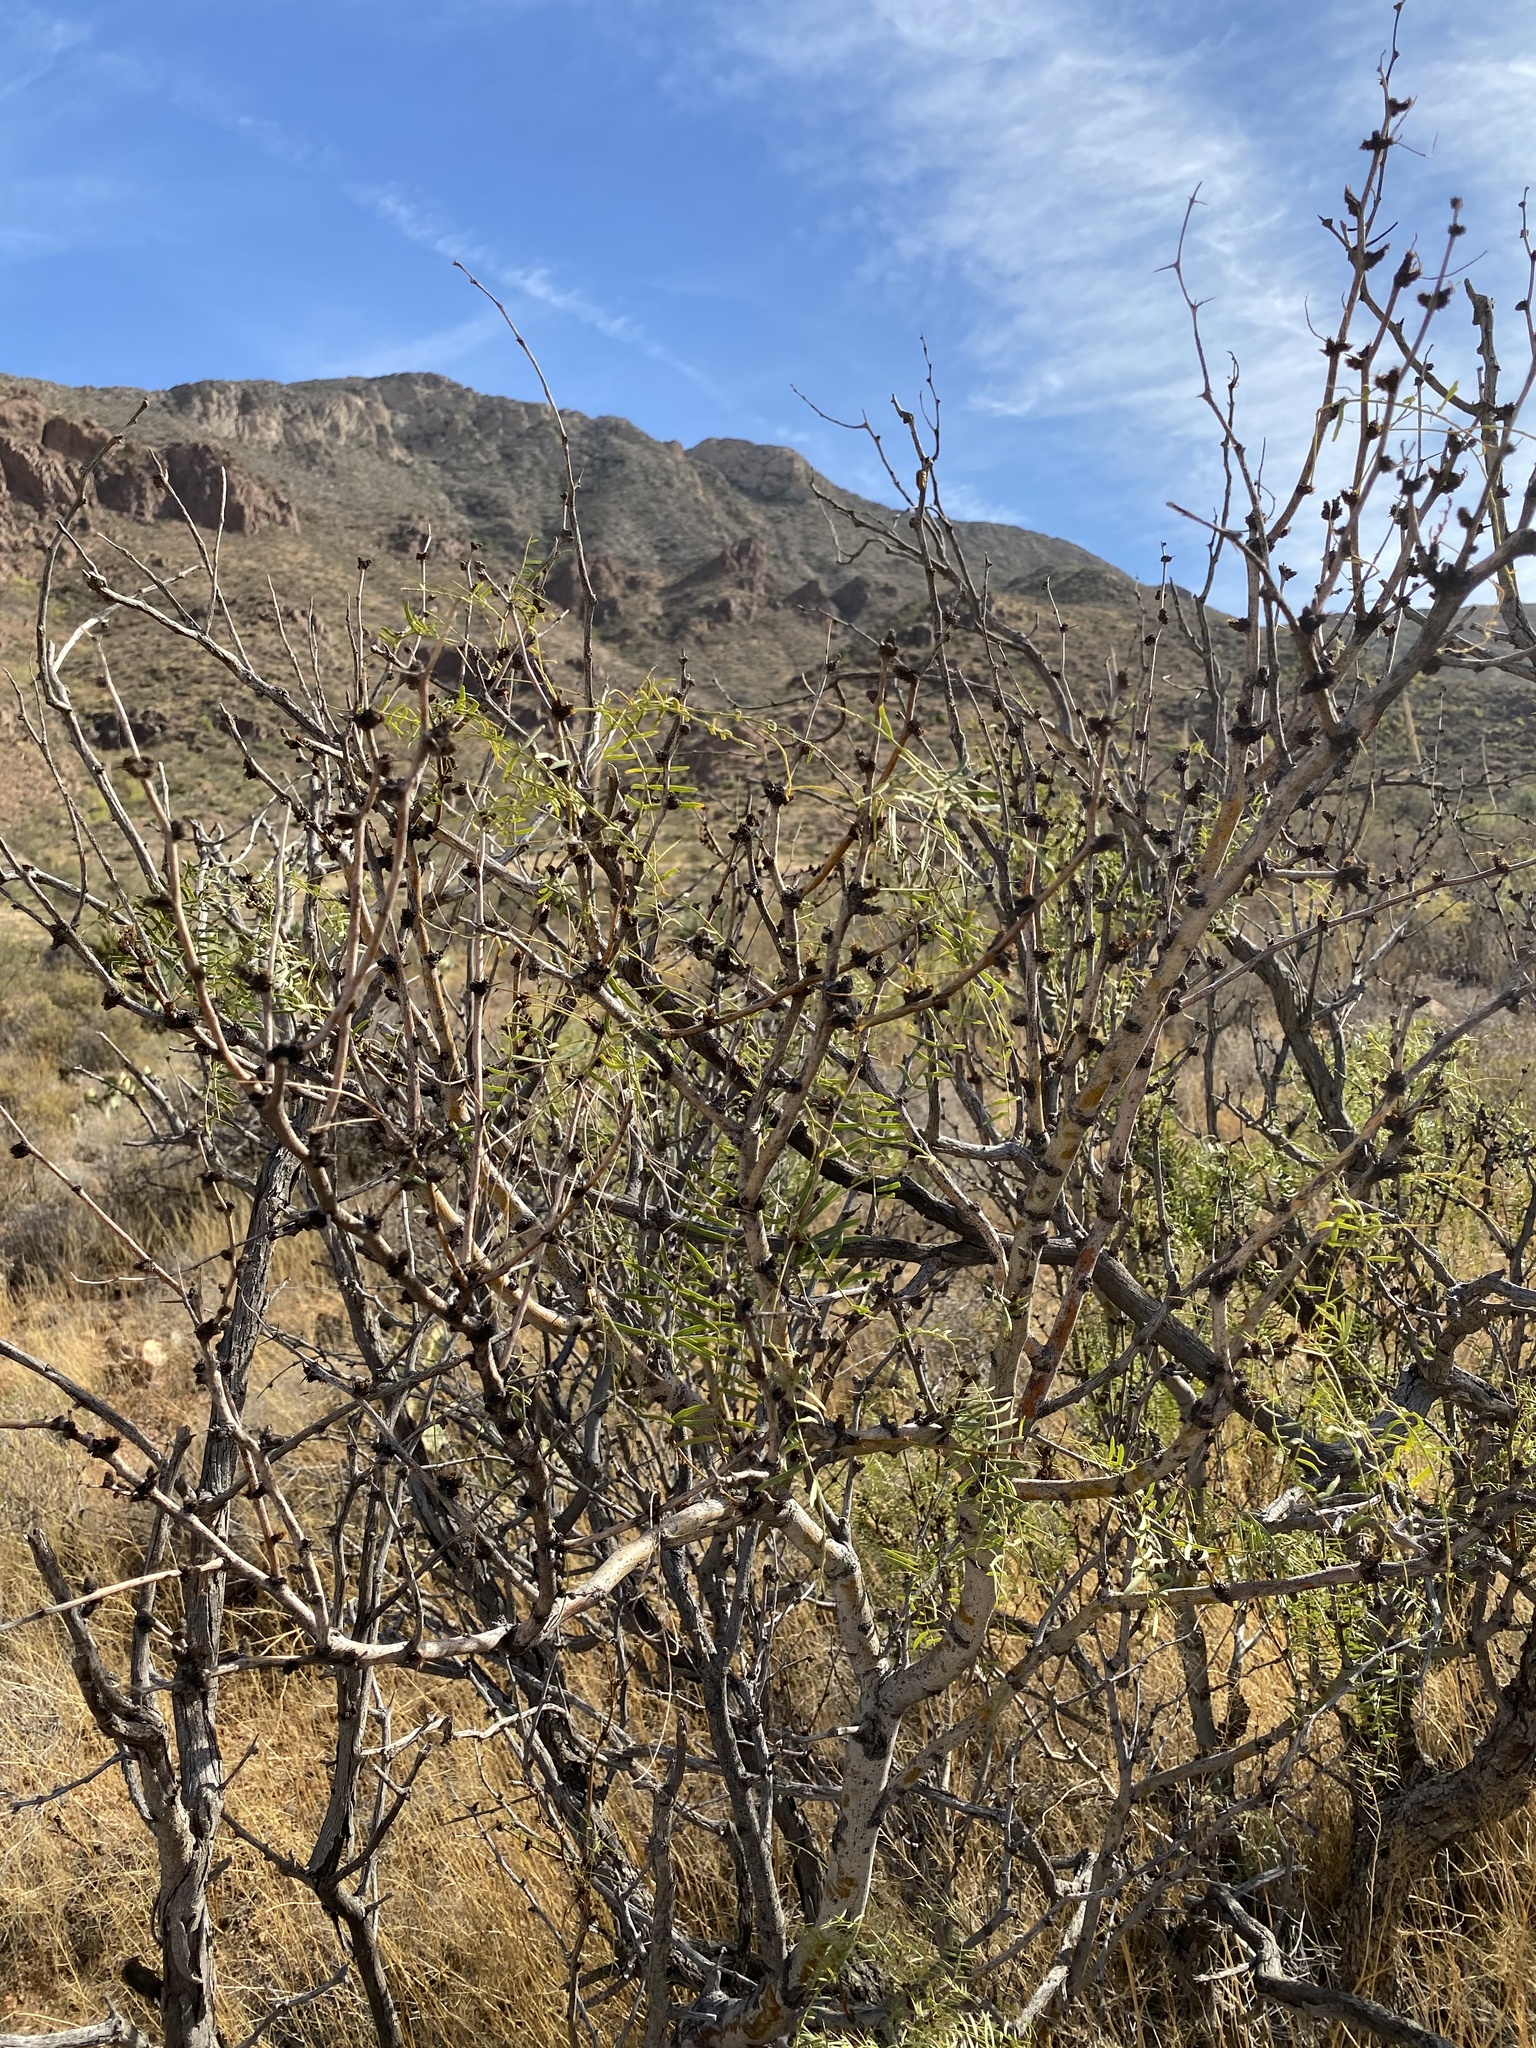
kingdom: Plantae
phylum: Tracheophyta
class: Magnoliopsida
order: Fabales
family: Fabaceae
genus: Prosopis
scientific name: Prosopis glandulosa
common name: Honey mesquite
